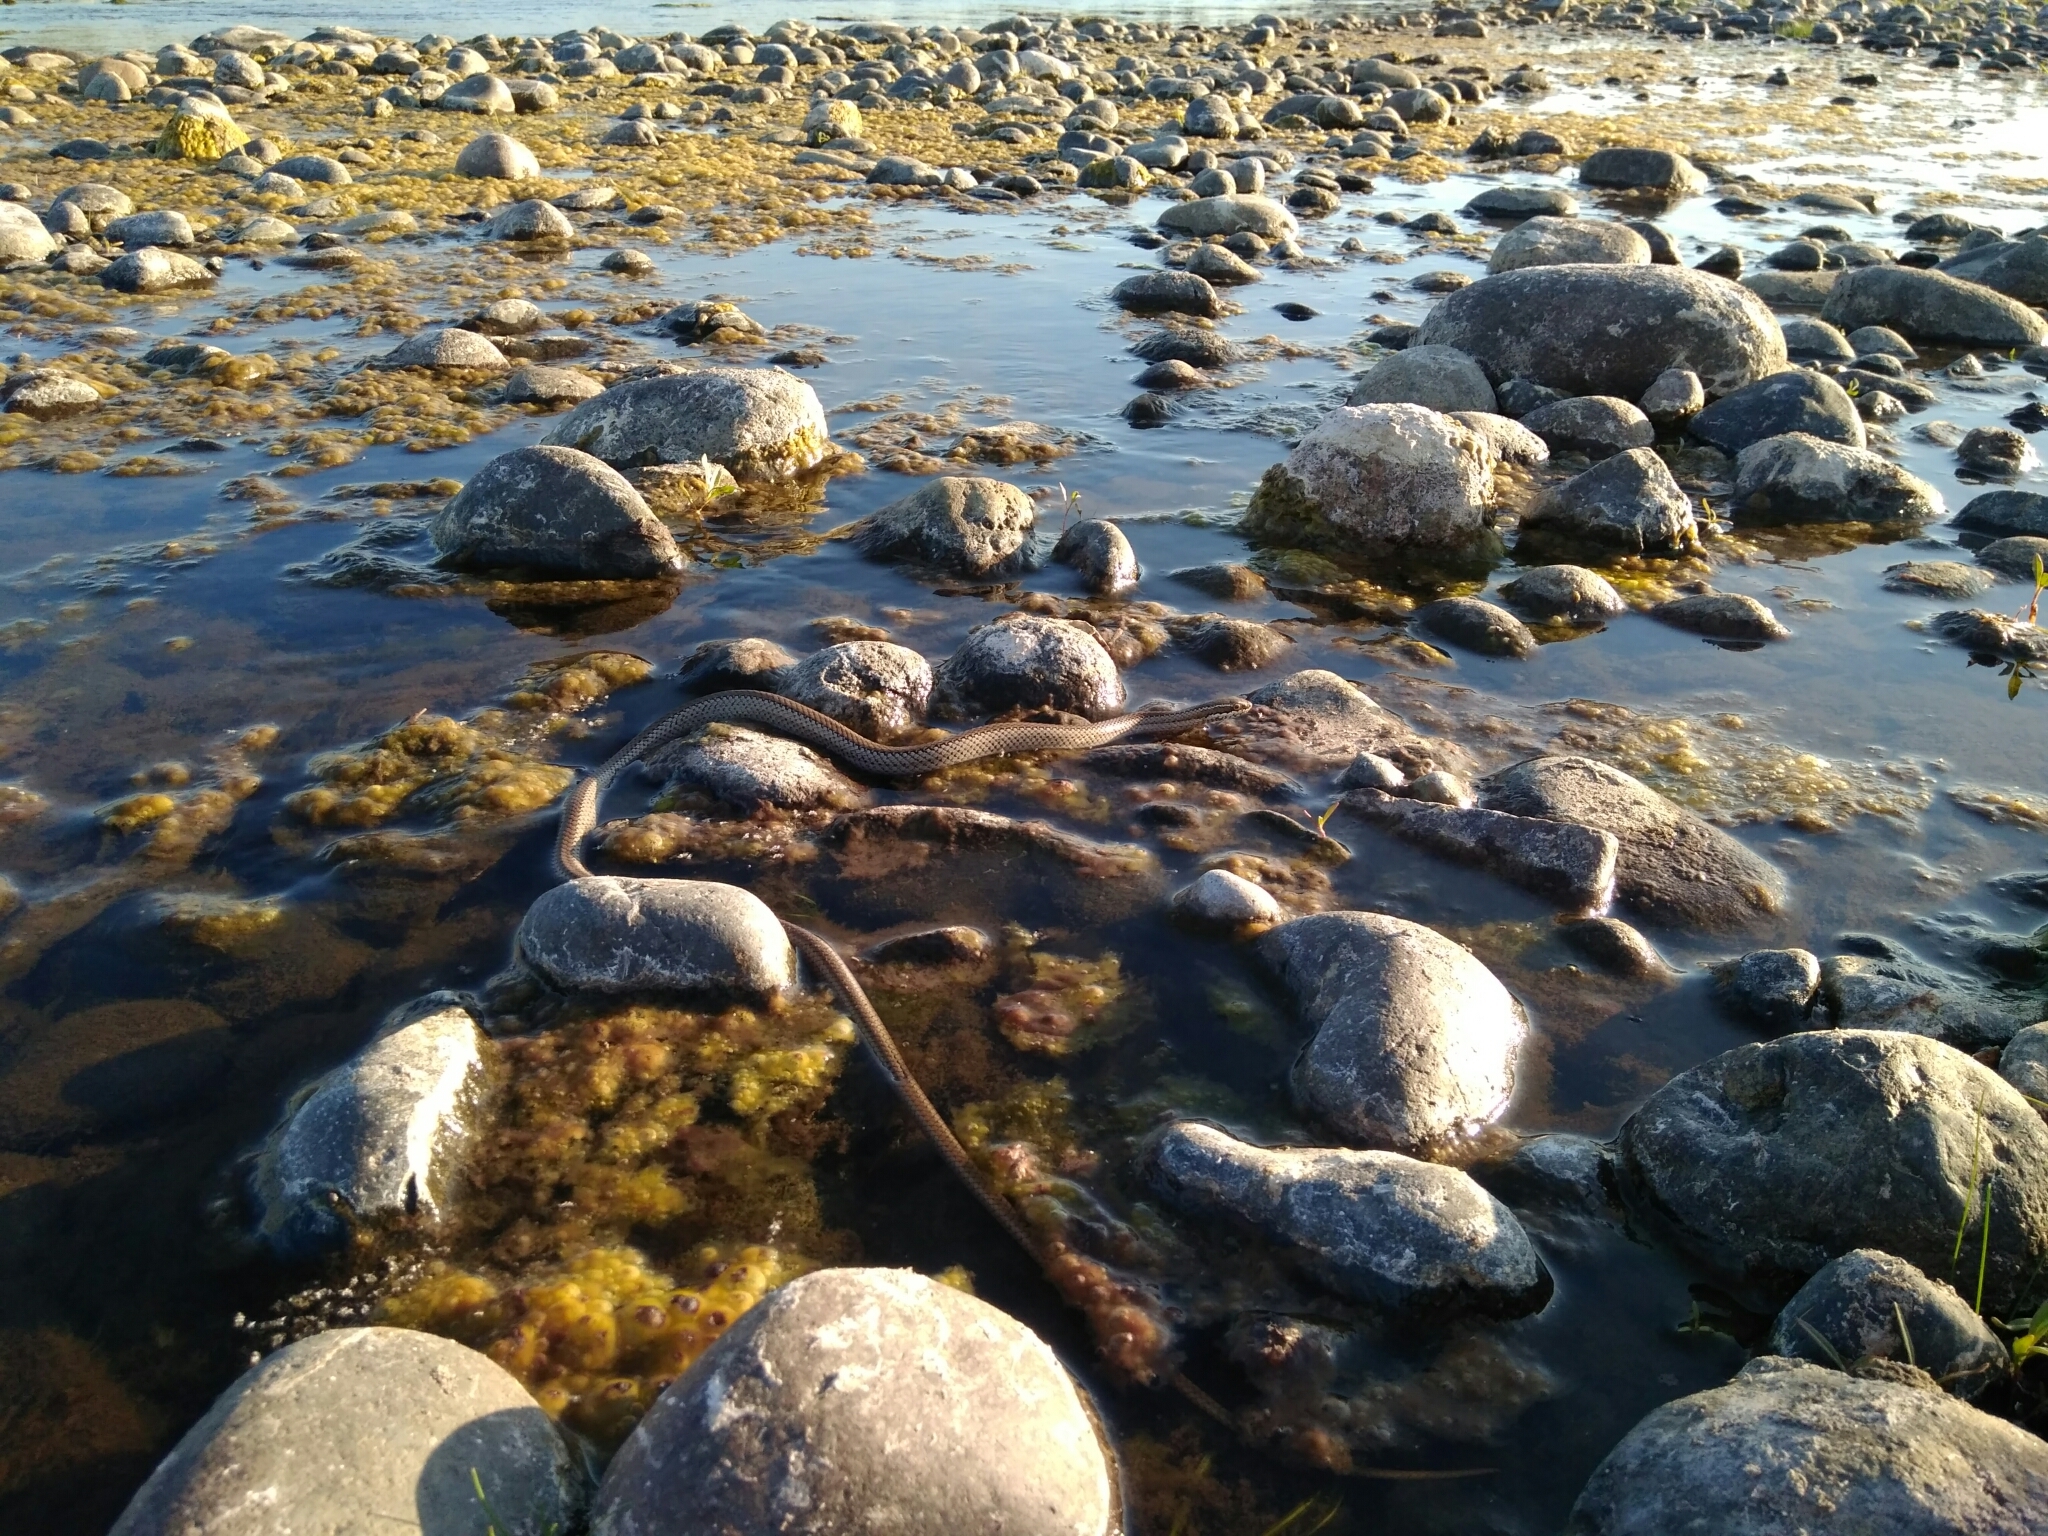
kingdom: Animalia
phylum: Chordata
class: Squamata
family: Colubridae
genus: Philodryas
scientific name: Philodryas chamissonis
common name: Chilean green racer
